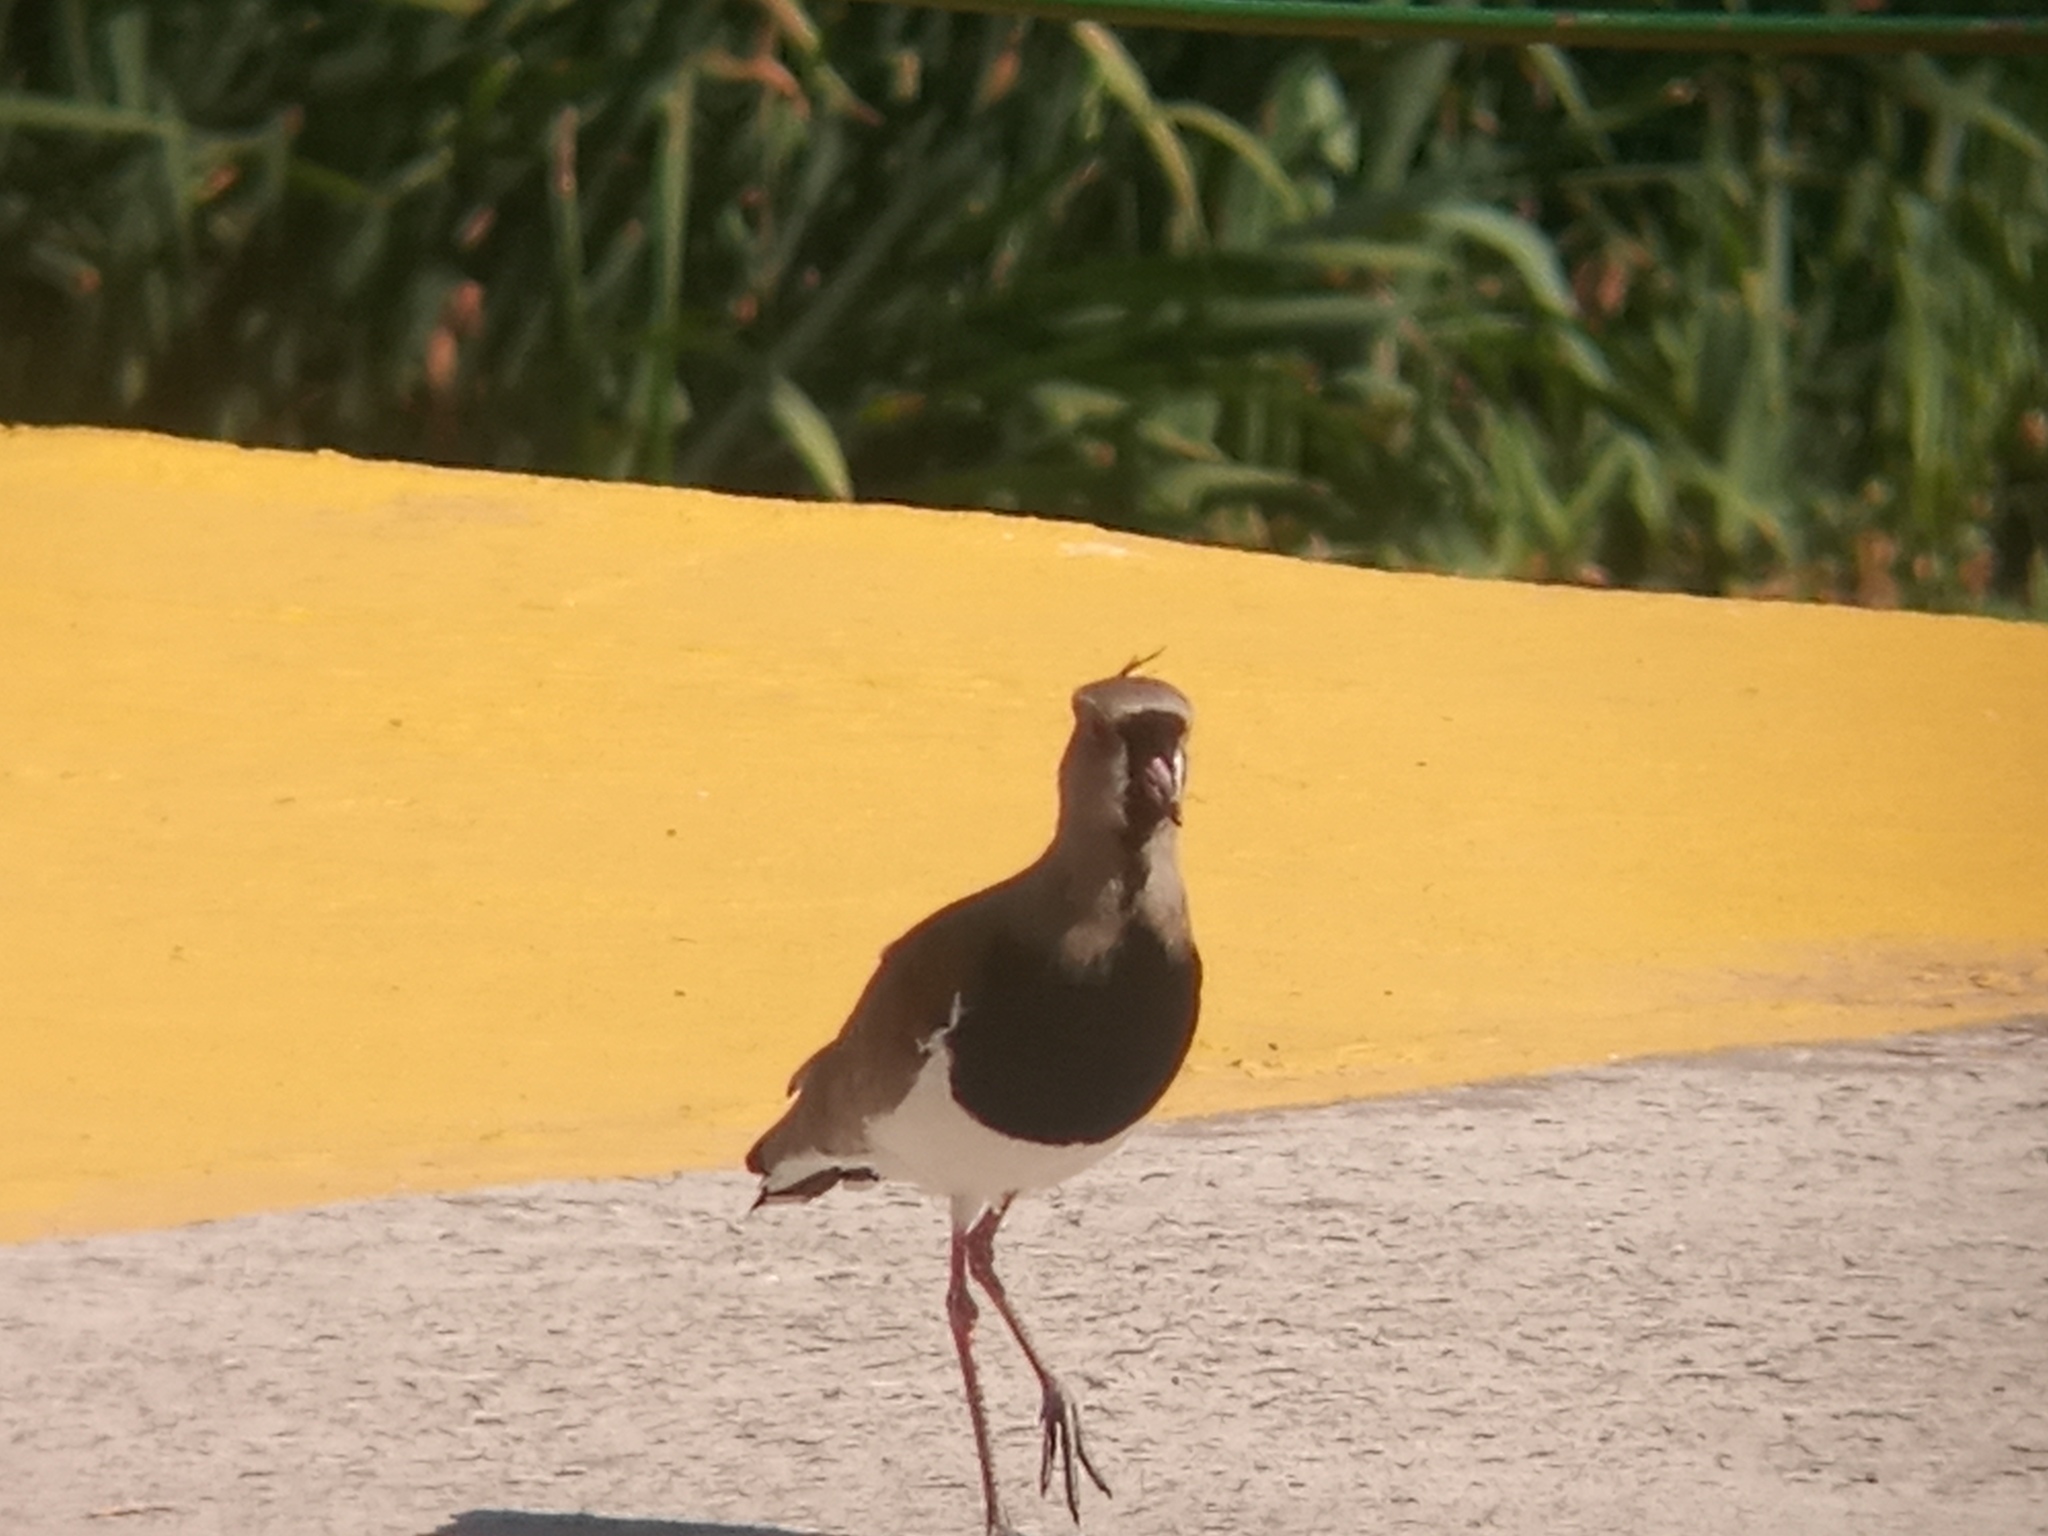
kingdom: Animalia
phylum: Chordata
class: Aves
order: Charadriiformes
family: Charadriidae
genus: Vanellus
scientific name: Vanellus chilensis
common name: Southern lapwing
